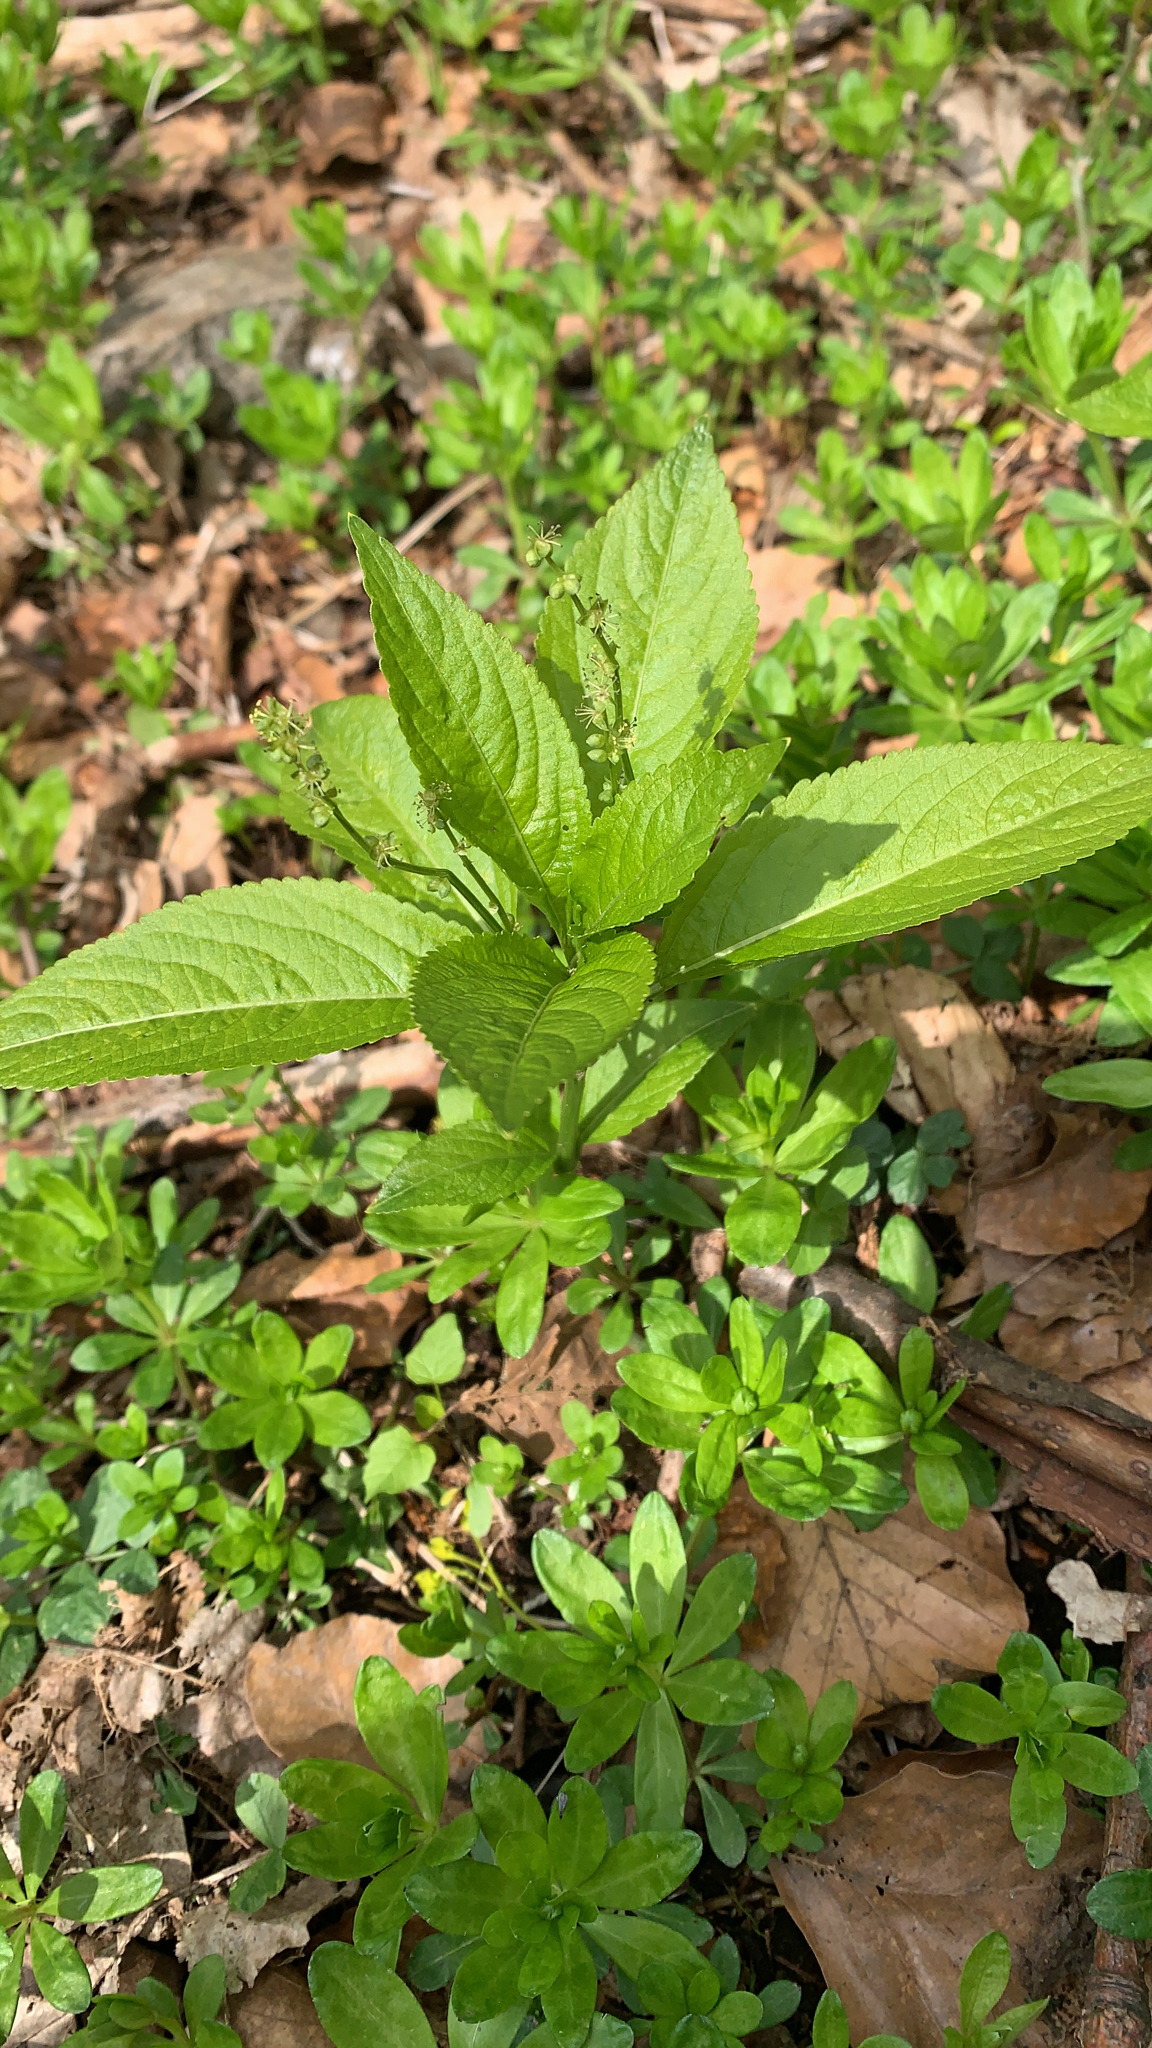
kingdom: Plantae
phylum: Tracheophyta
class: Magnoliopsida
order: Malpighiales
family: Euphorbiaceae
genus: Mercurialis
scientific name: Mercurialis perennis
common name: Dog mercury
